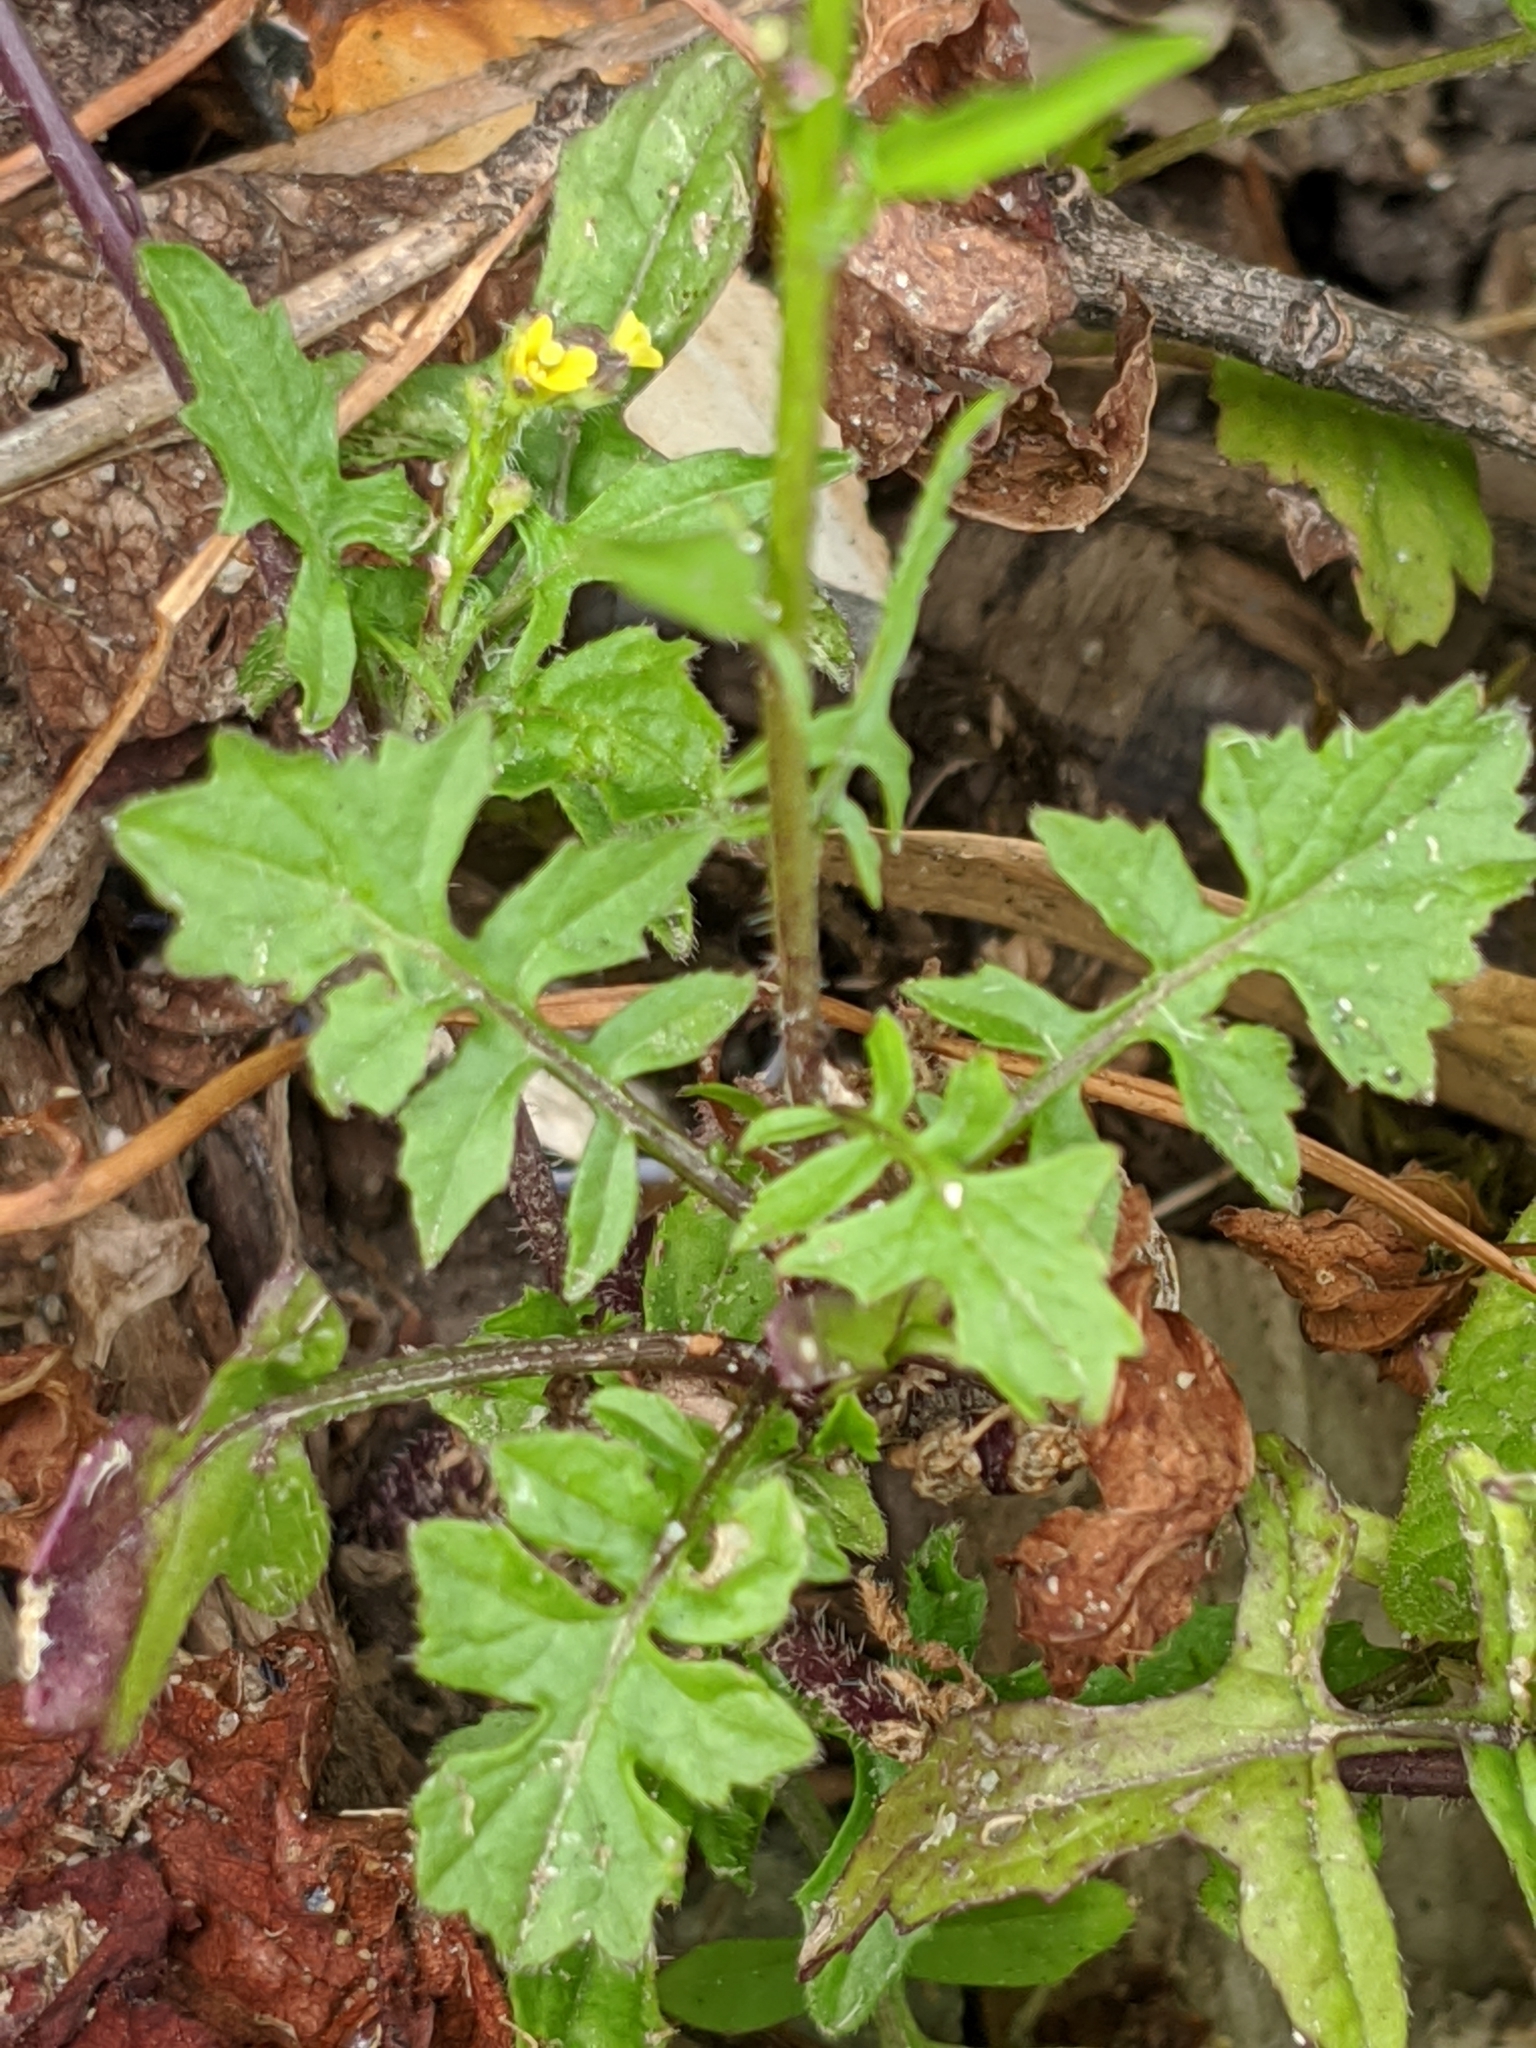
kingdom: Plantae
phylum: Tracheophyta
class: Magnoliopsida
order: Brassicales
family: Brassicaceae
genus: Sisymbrium
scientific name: Sisymbrium officinale
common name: Hedge mustard
